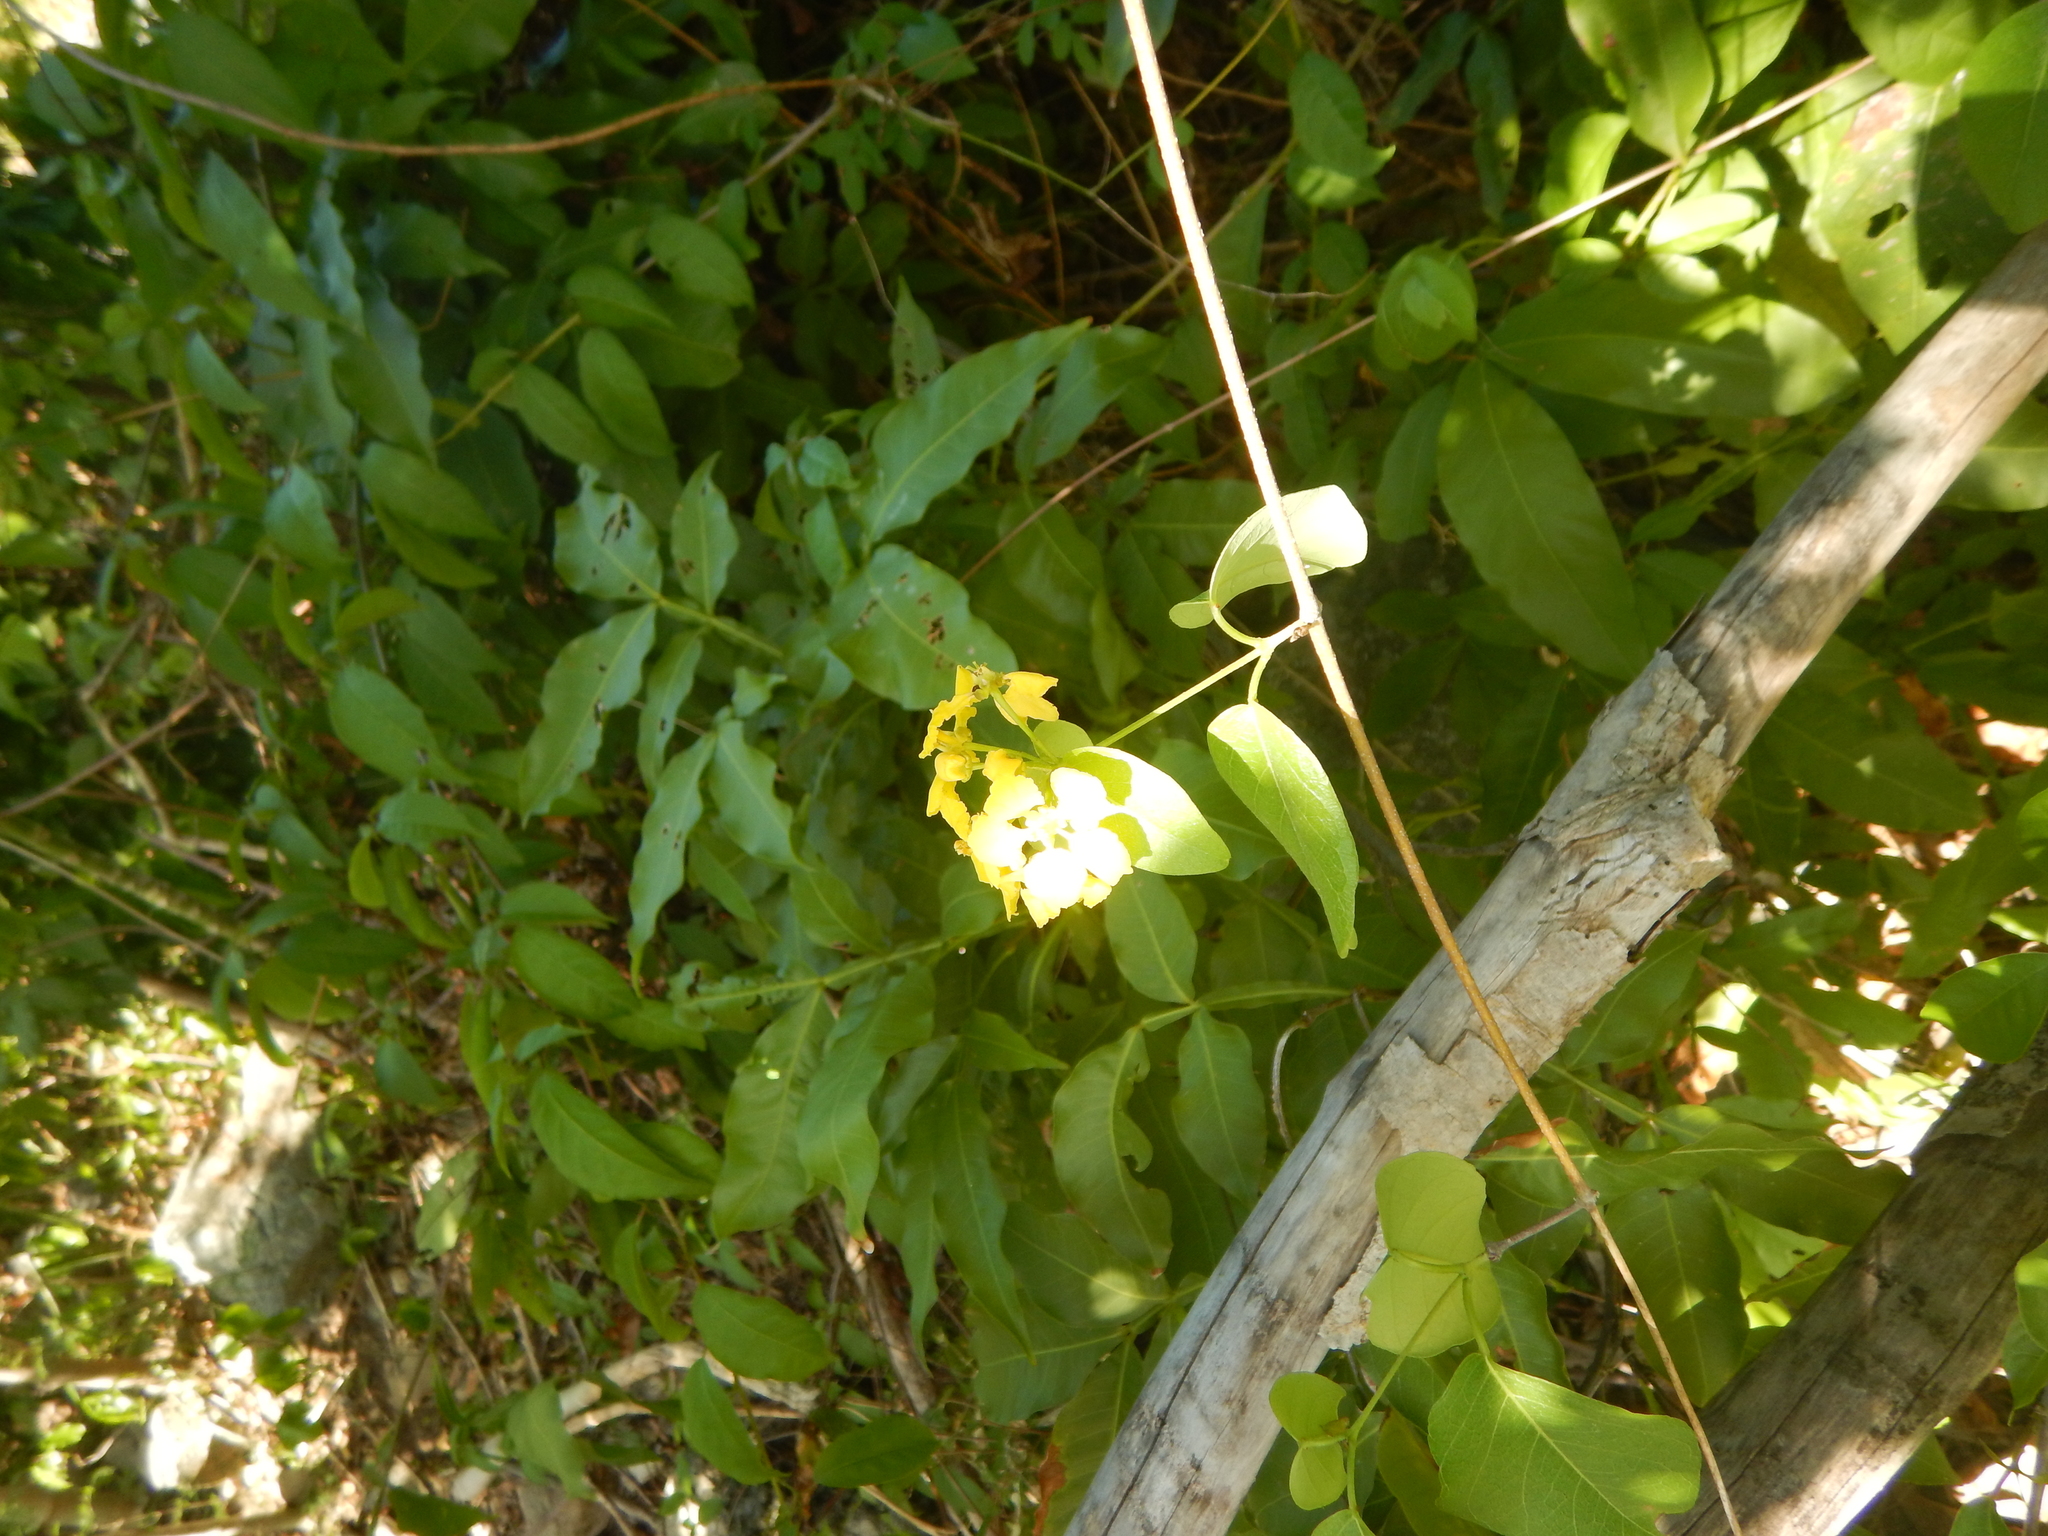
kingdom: Plantae
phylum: Tracheophyta
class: Magnoliopsida
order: Malpighiales
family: Malpighiaceae
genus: Stigmaphyllon
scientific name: Stigmaphyllon emarginatum
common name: Monarch amazonvine
